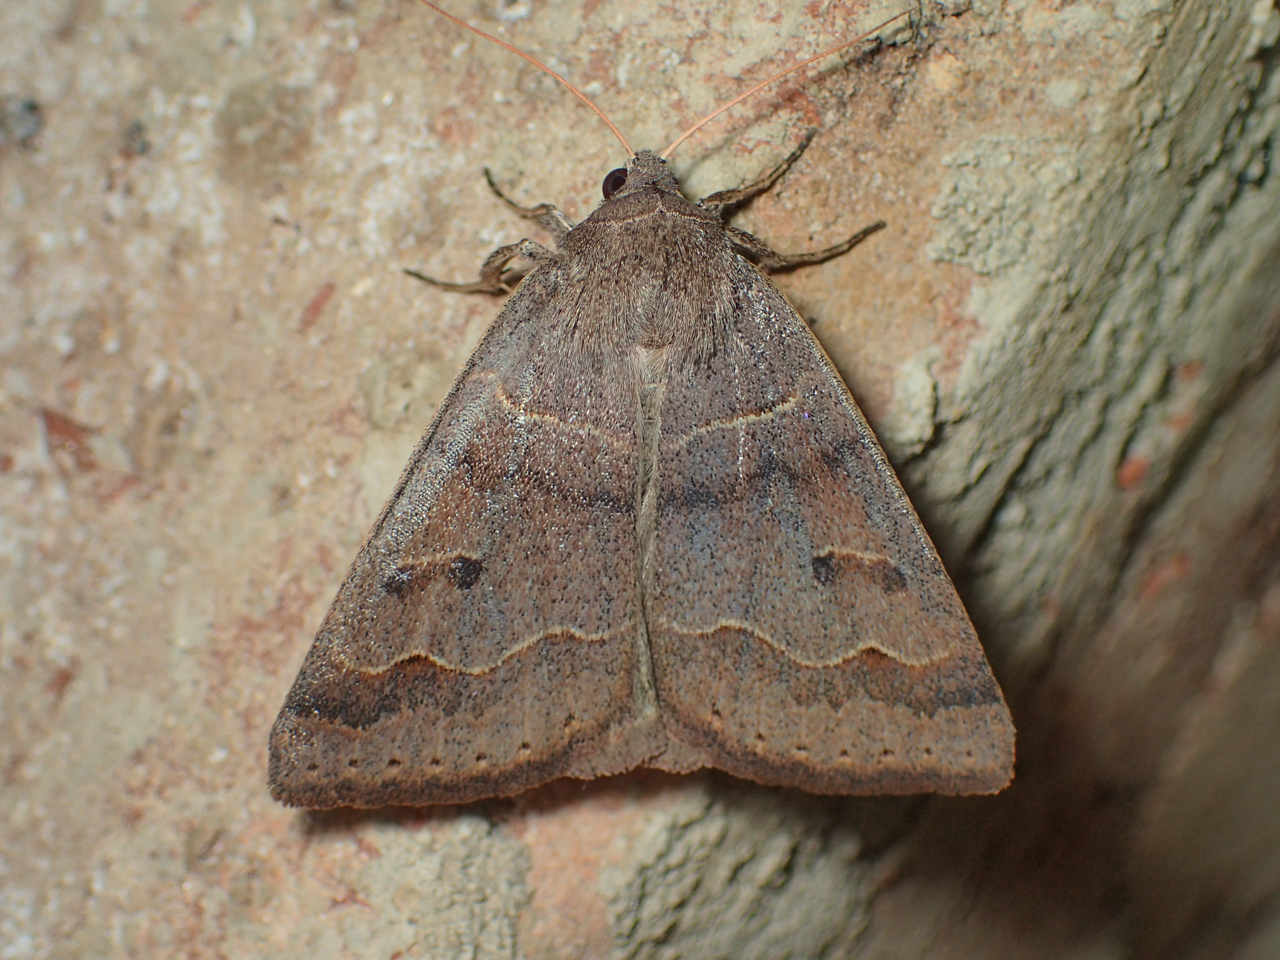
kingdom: Animalia
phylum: Arthropoda
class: Insecta
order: Lepidoptera
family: Erebidae
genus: Phoberia
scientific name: Phoberia atomaris
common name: Common oak moth
